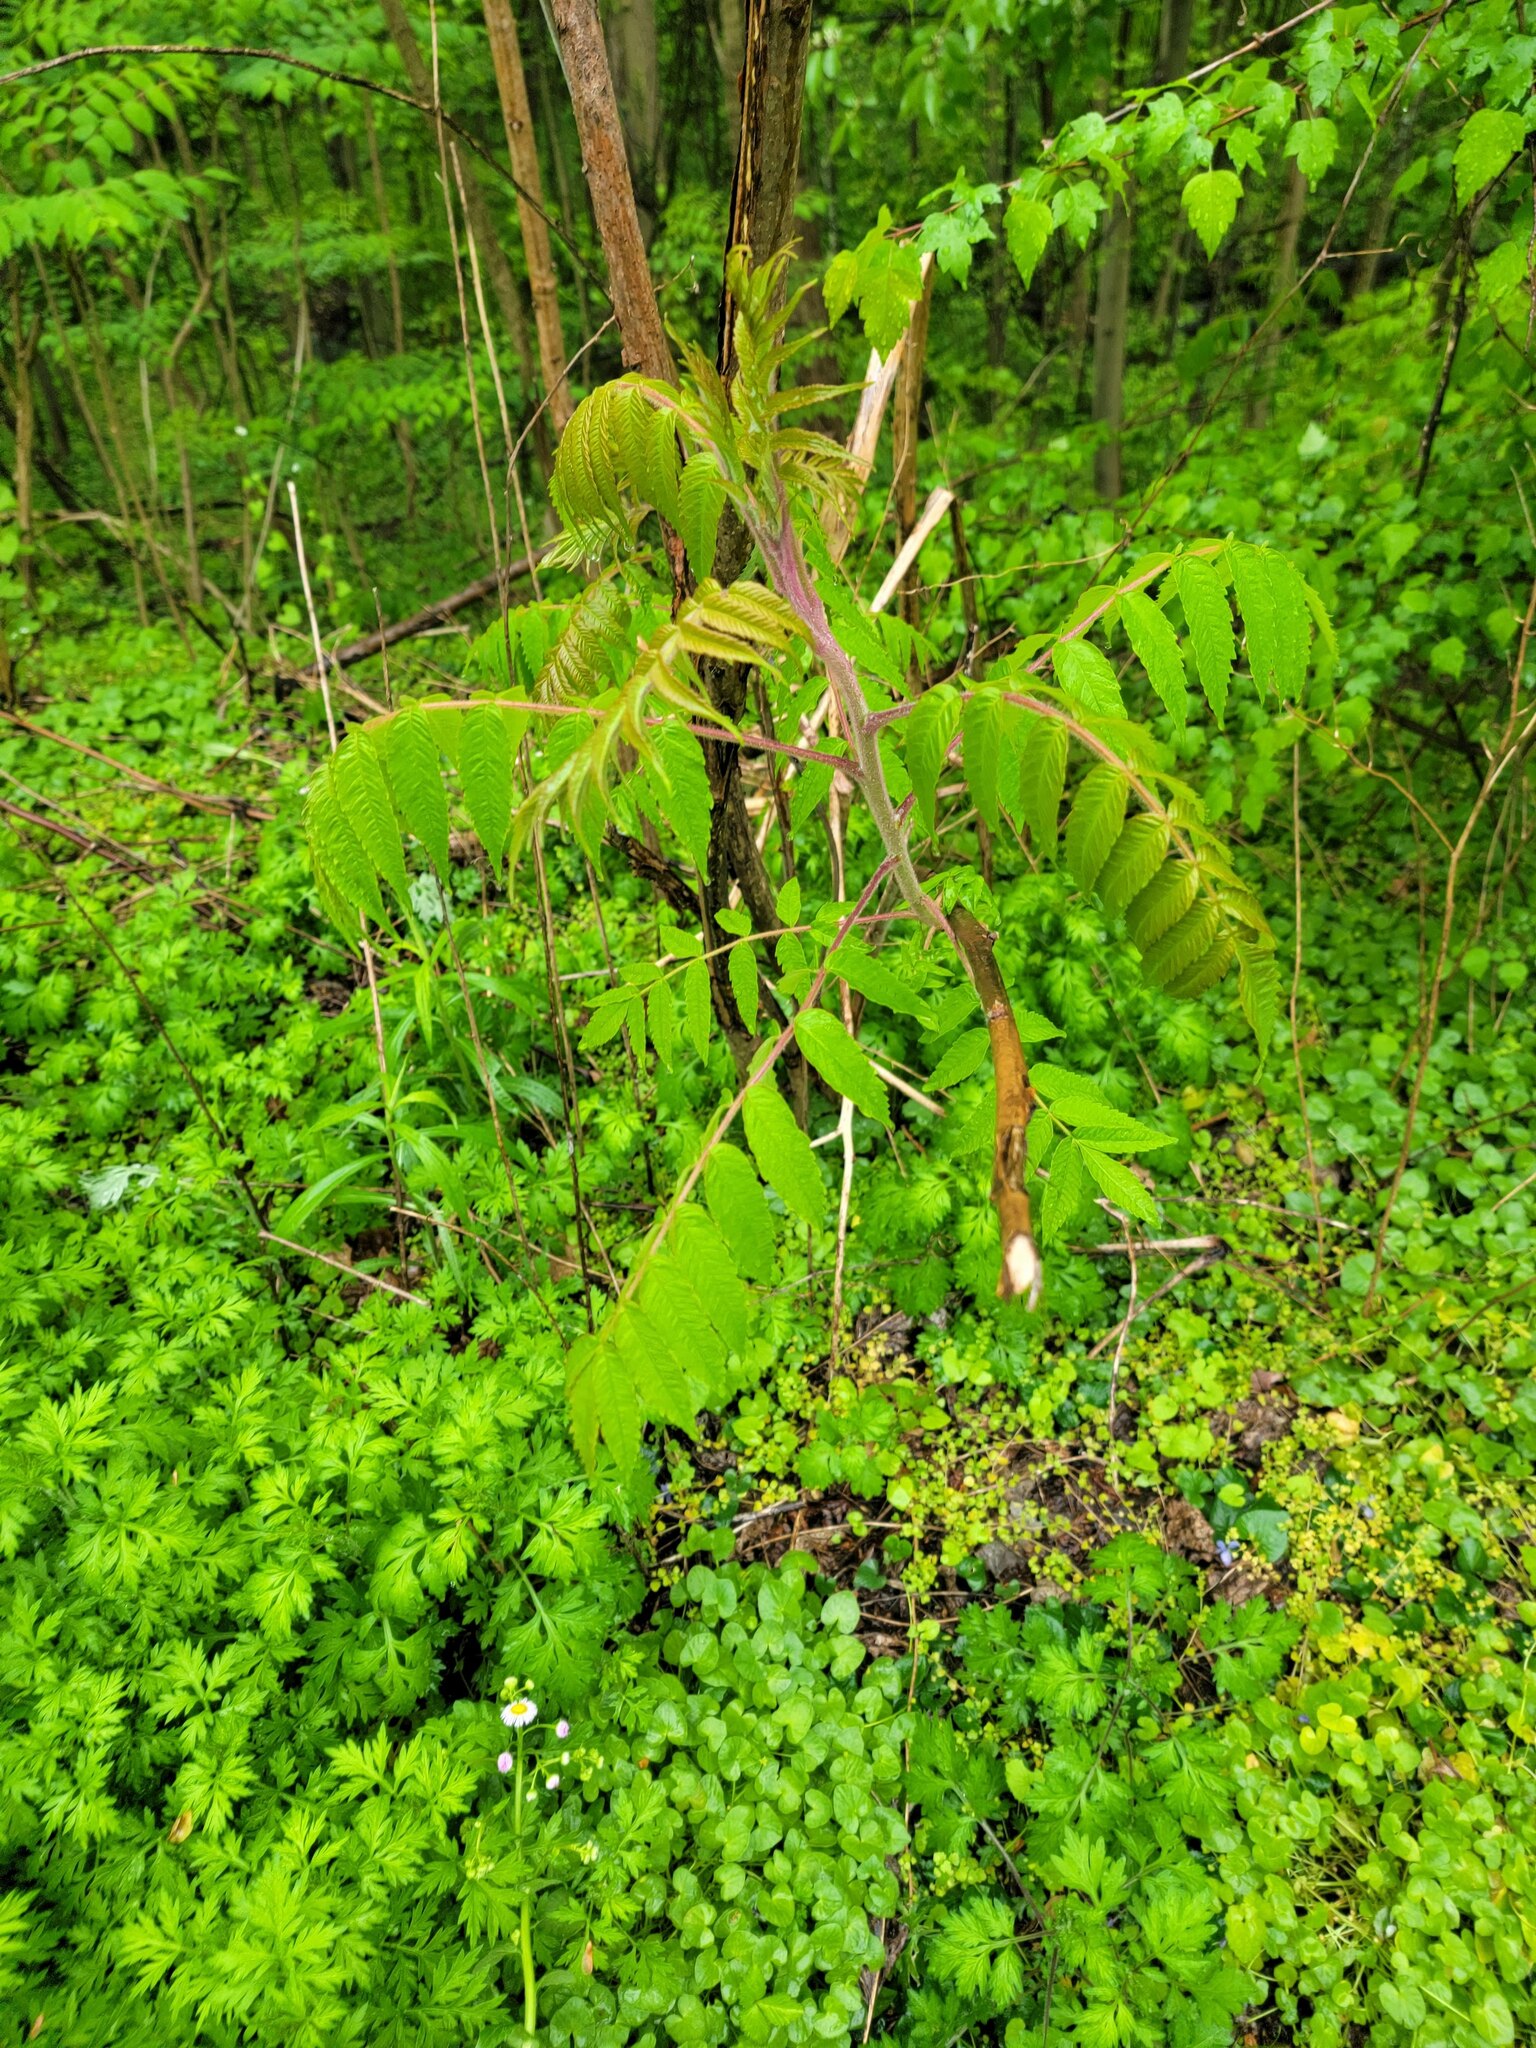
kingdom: Plantae
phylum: Tracheophyta
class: Magnoliopsida
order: Sapindales
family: Anacardiaceae
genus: Rhus
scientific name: Rhus typhina
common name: Staghorn sumac
